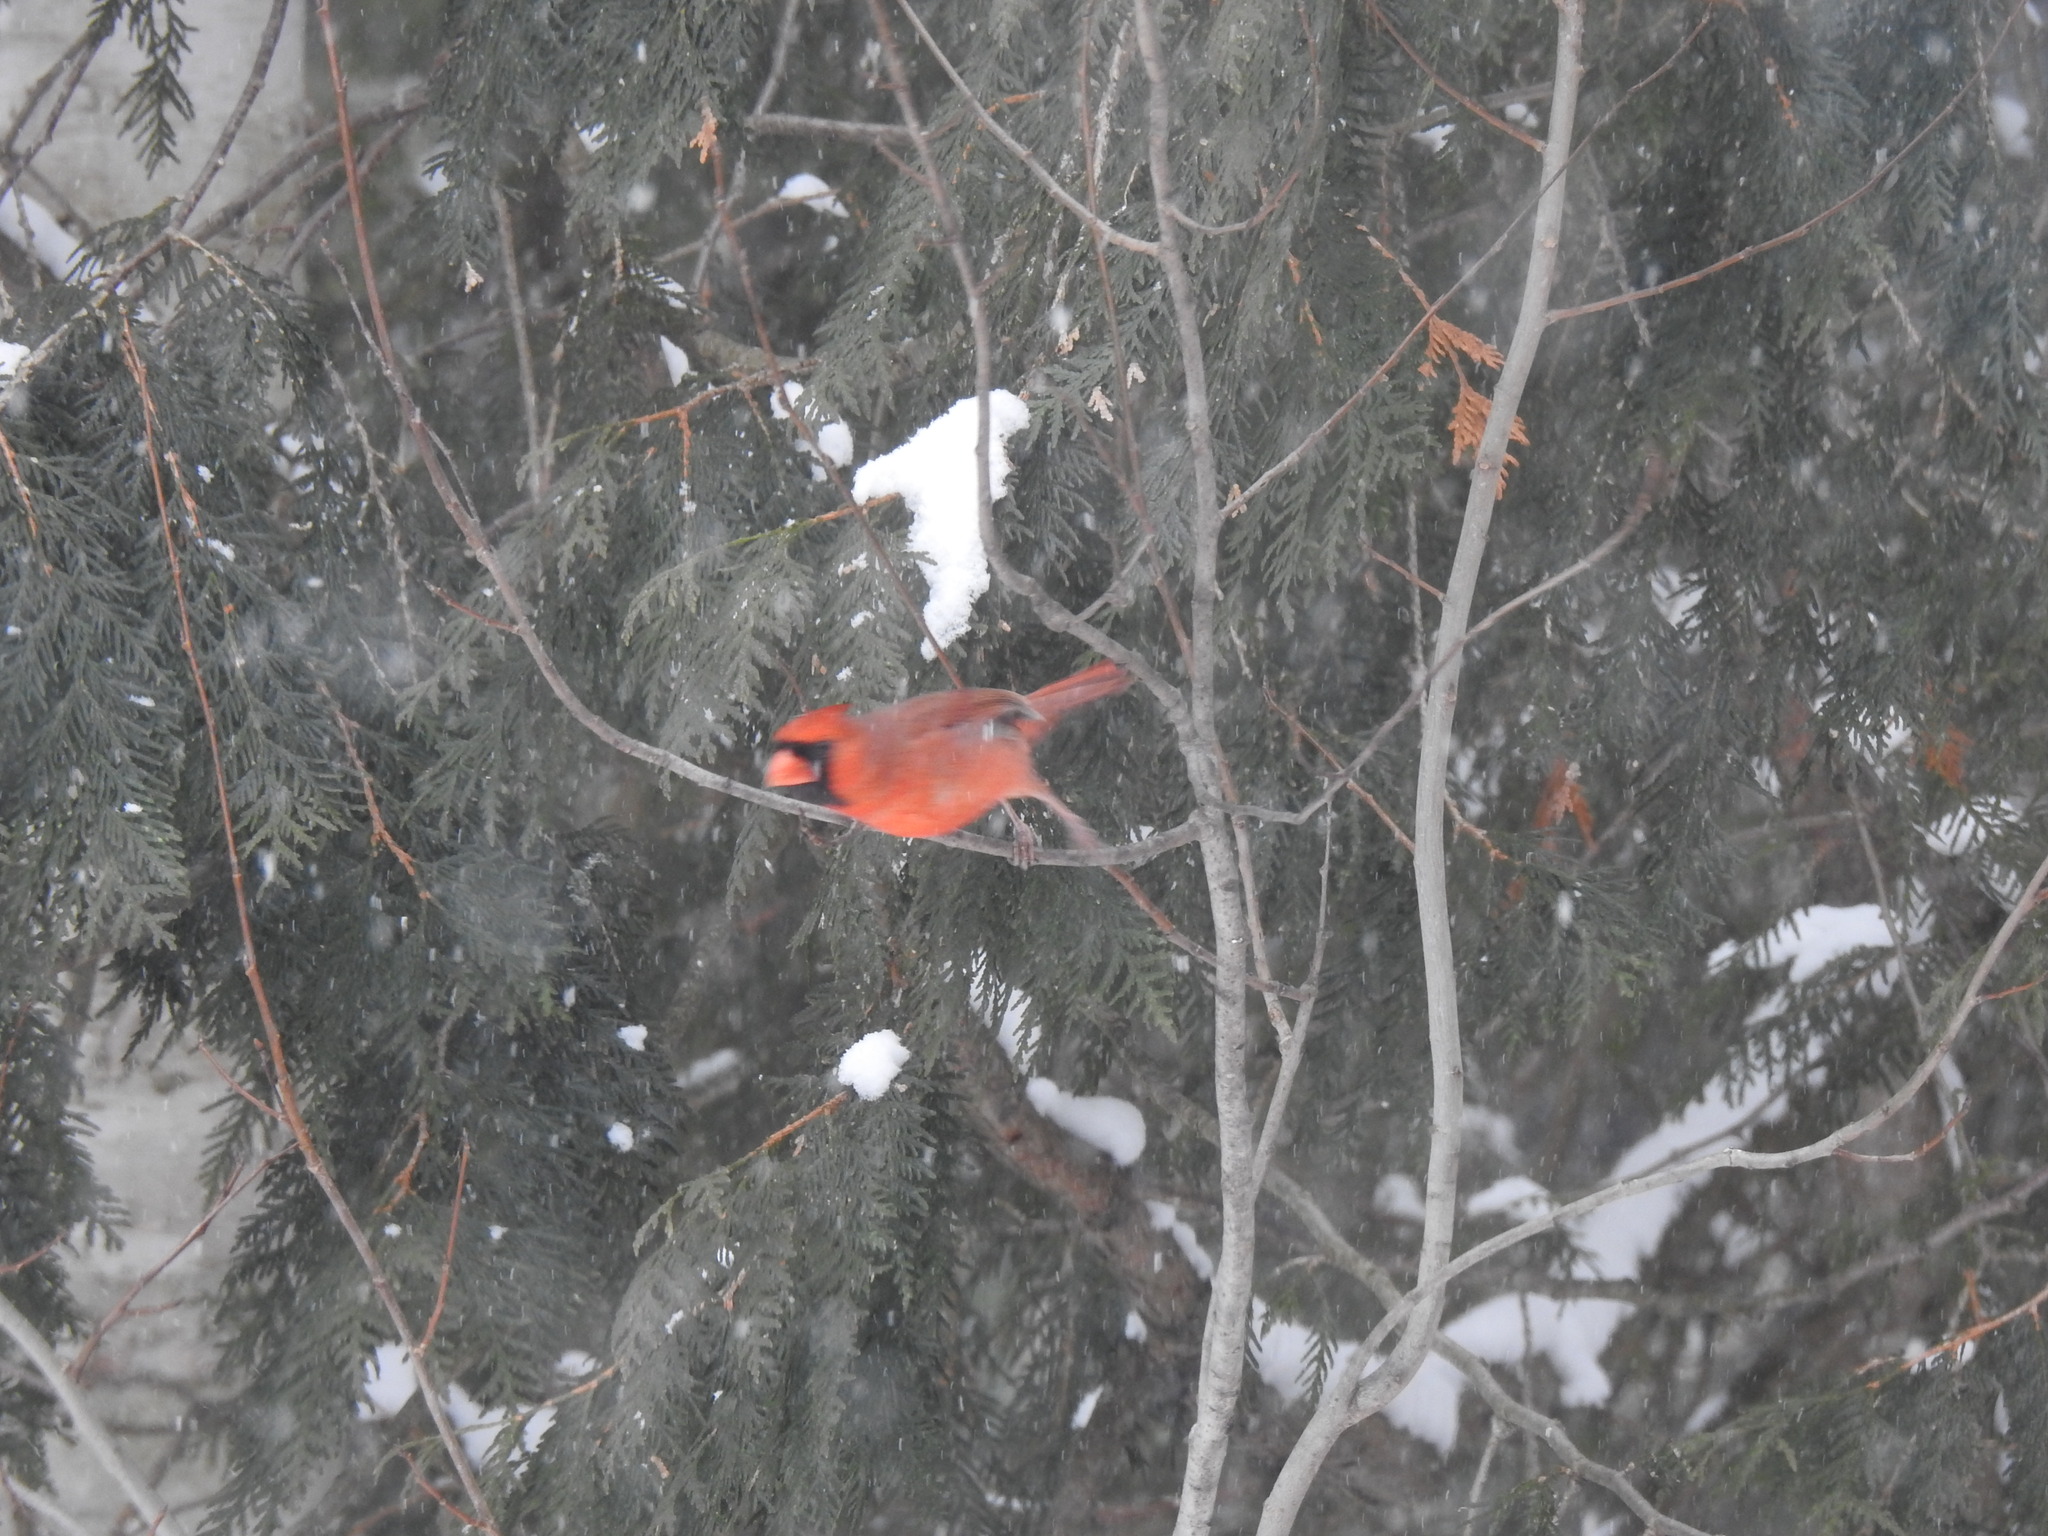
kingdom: Animalia
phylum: Chordata
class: Aves
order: Passeriformes
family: Cardinalidae
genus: Cardinalis
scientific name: Cardinalis cardinalis
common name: Northern cardinal
